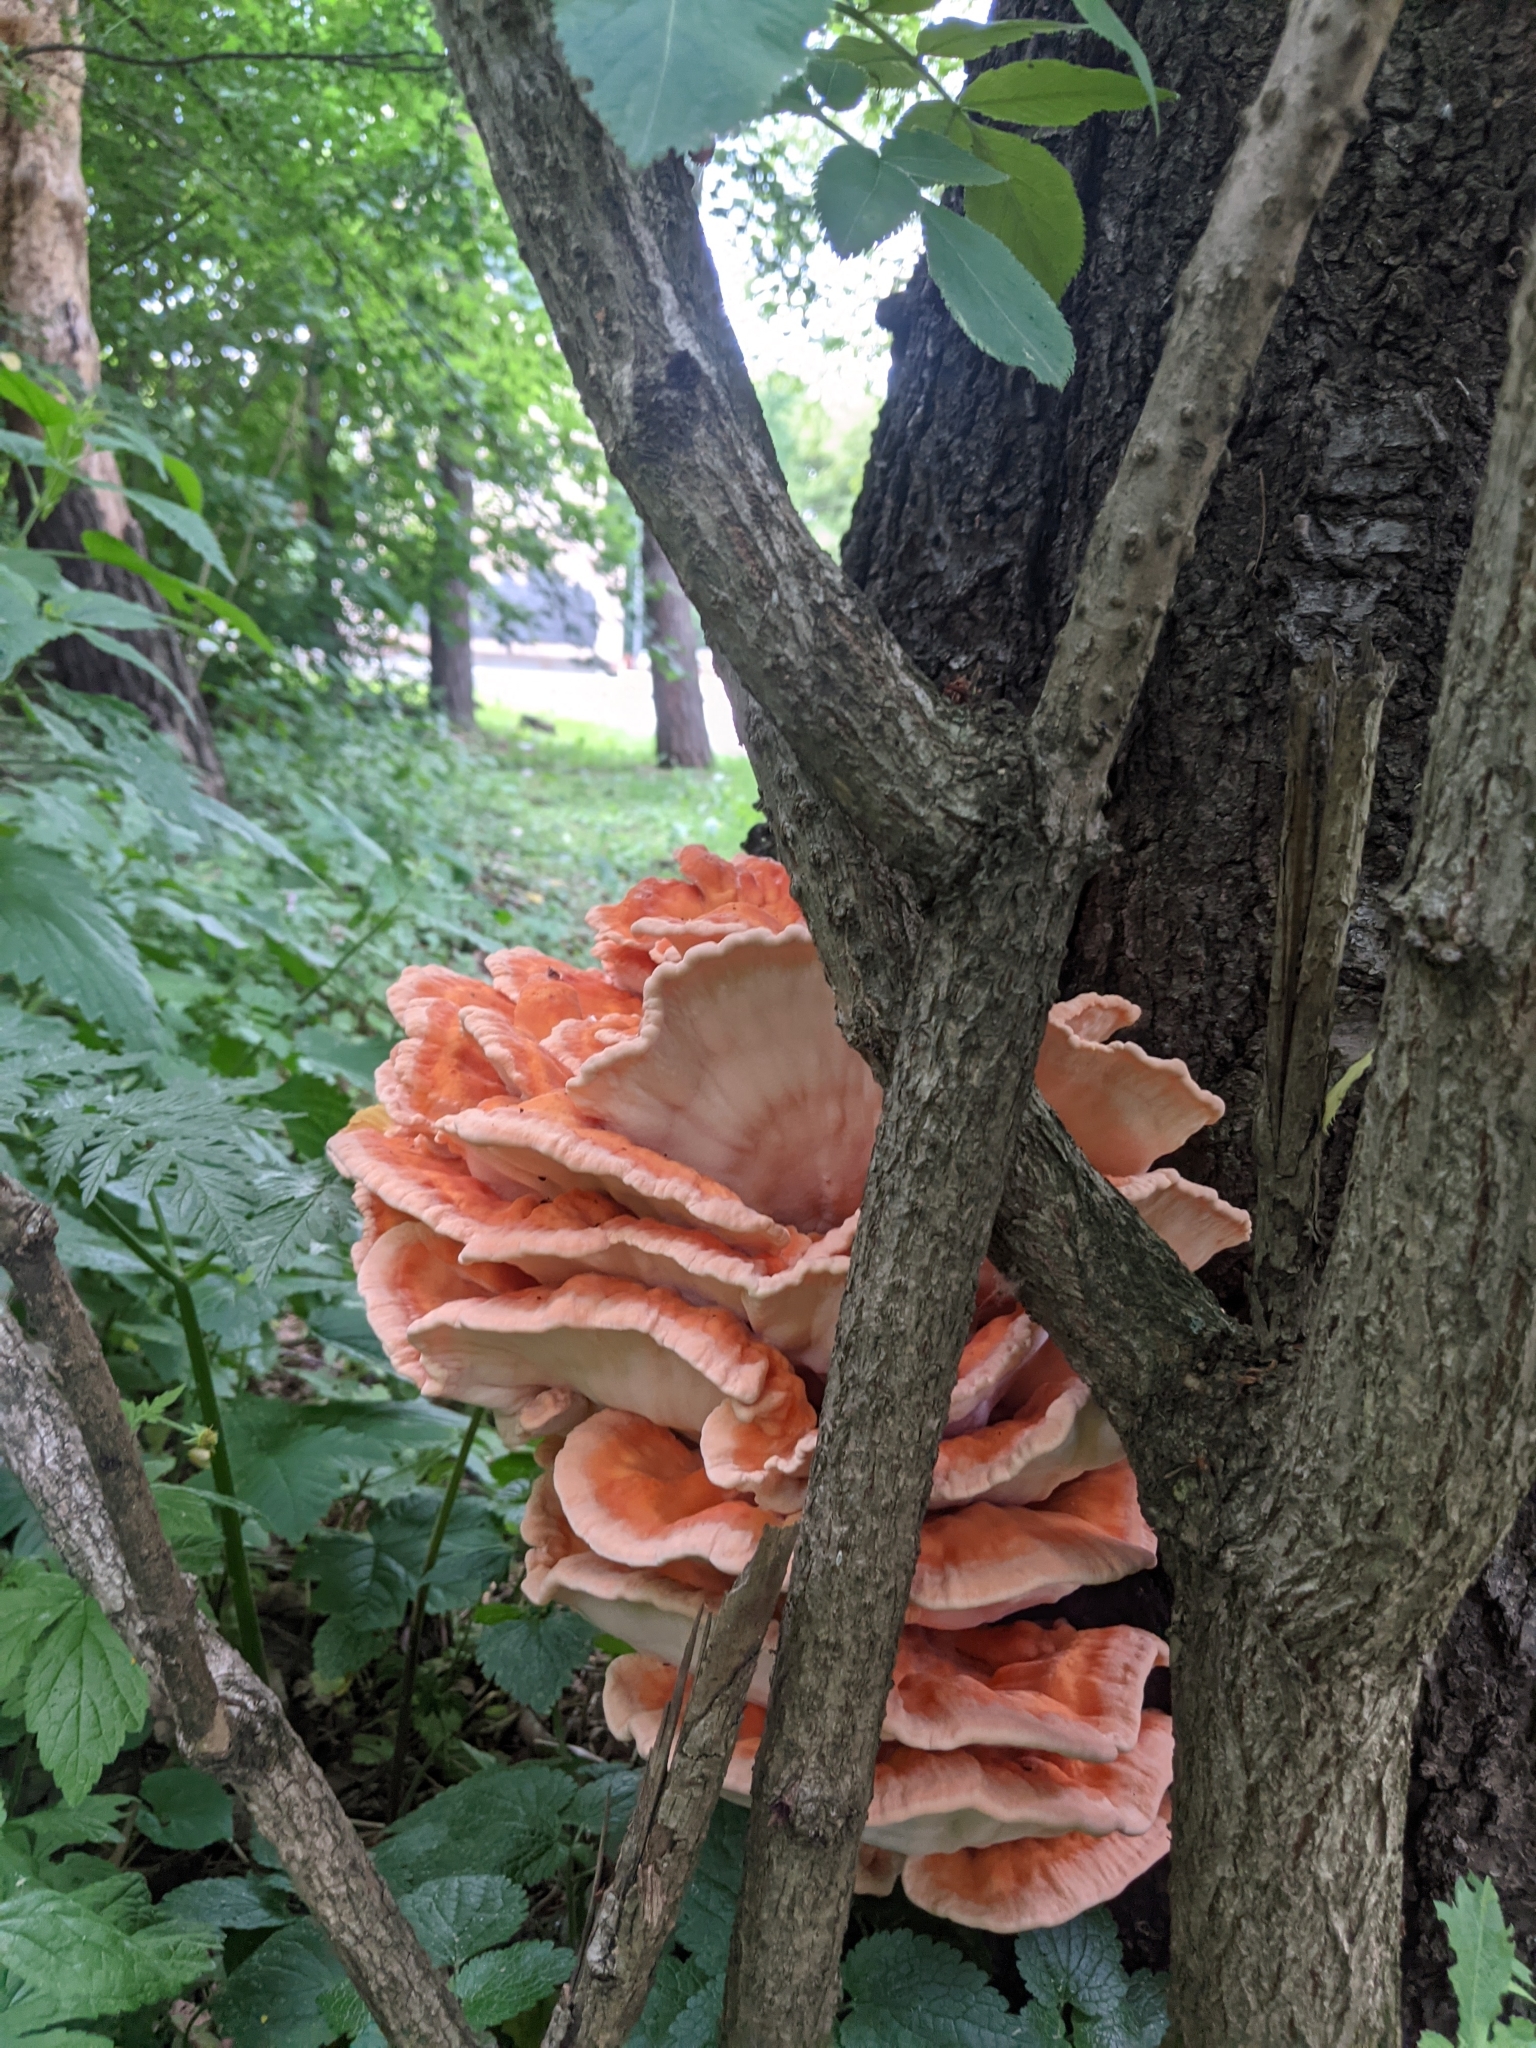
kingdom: Fungi
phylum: Basidiomycota
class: Agaricomycetes
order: Polyporales
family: Laetiporaceae
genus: Laetiporus
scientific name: Laetiporus sulphureus
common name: Chicken of the woods
